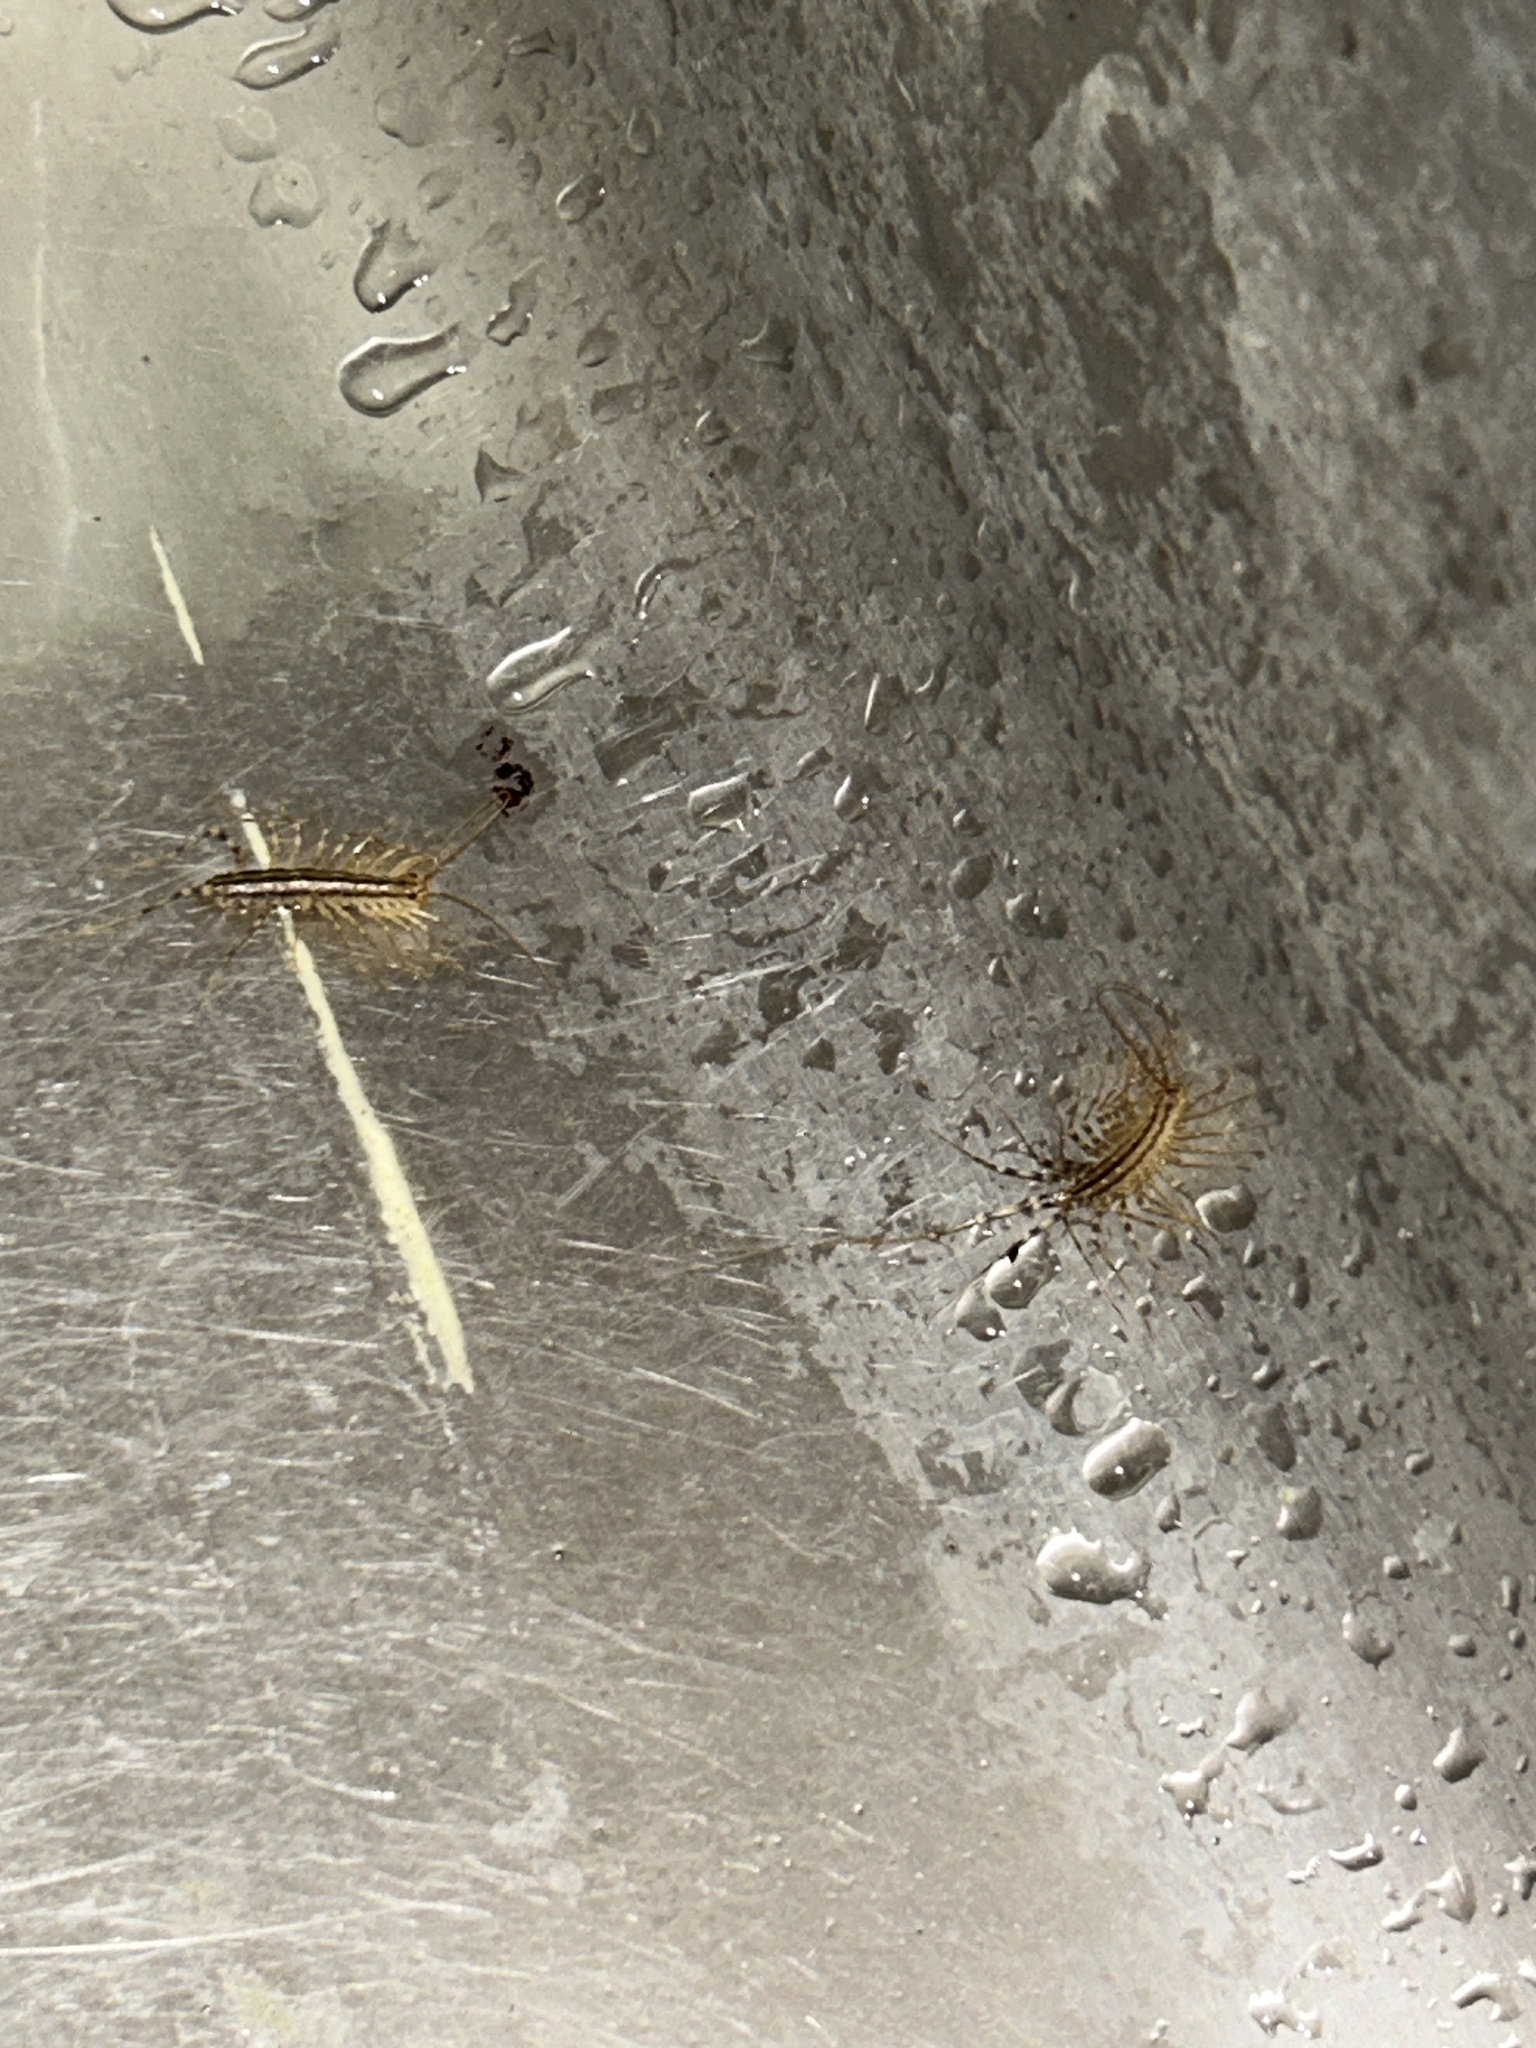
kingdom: Animalia
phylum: Arthropoda
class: Chilopoda
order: Scutigeromorpha
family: Scutigeridae
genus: Scutigera
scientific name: Scutigera coleoptrata
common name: House centipede
